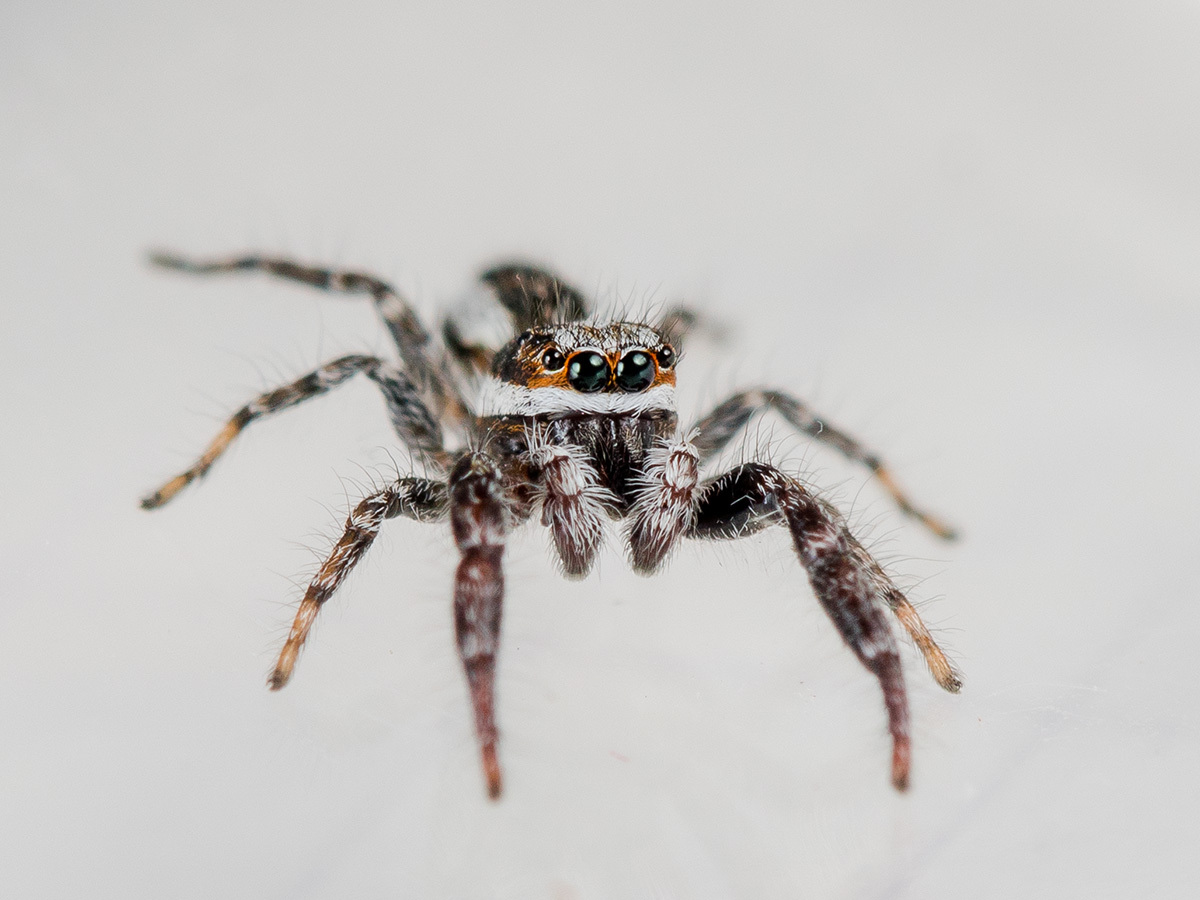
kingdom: Animalia
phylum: Arthropoda
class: Arachnida
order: Araneae
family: Salticidae
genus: Pseudicius
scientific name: Pseudicius encarpatus
